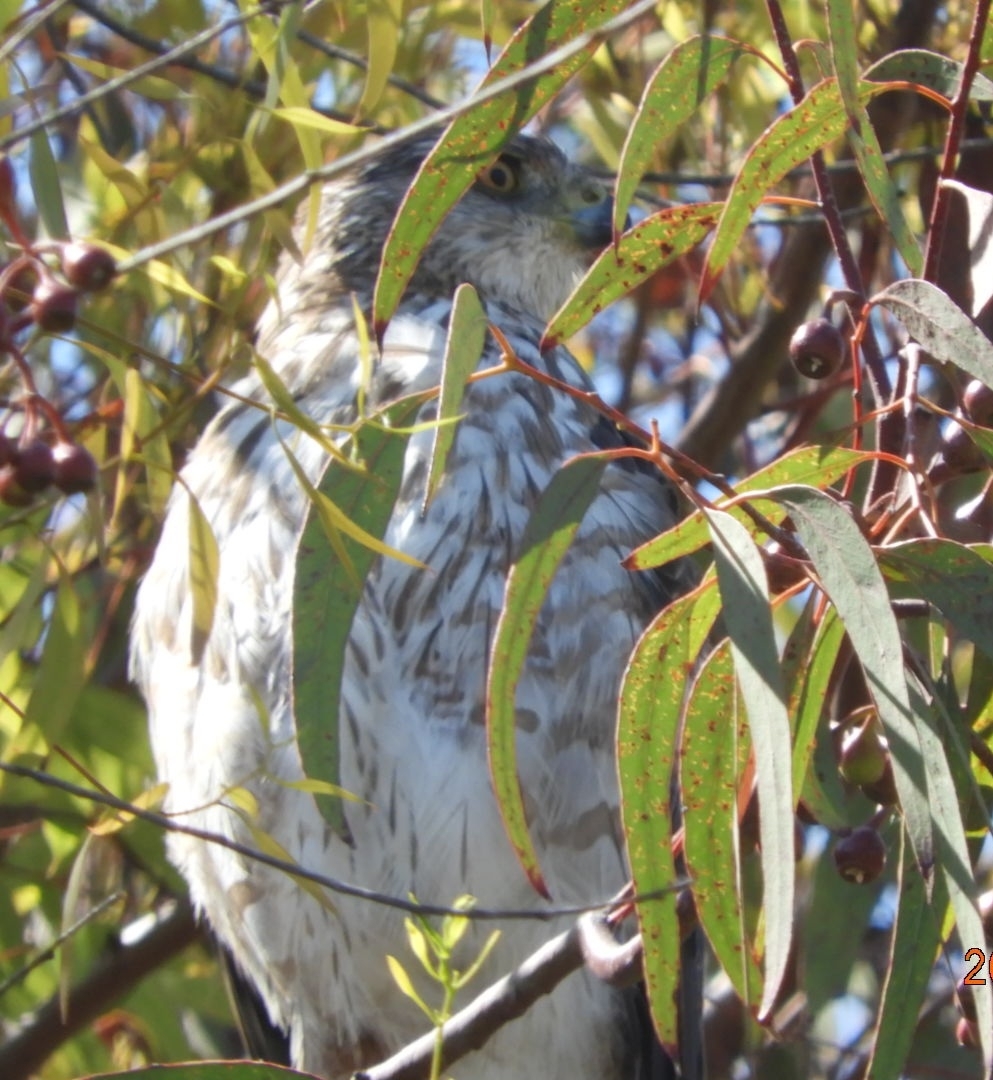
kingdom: Animalia
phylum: Chordata
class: Aves
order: Accipitriformes
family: Accipitridae
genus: Accipiter
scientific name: Accipiter cooperii
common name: Cooper's hawk
